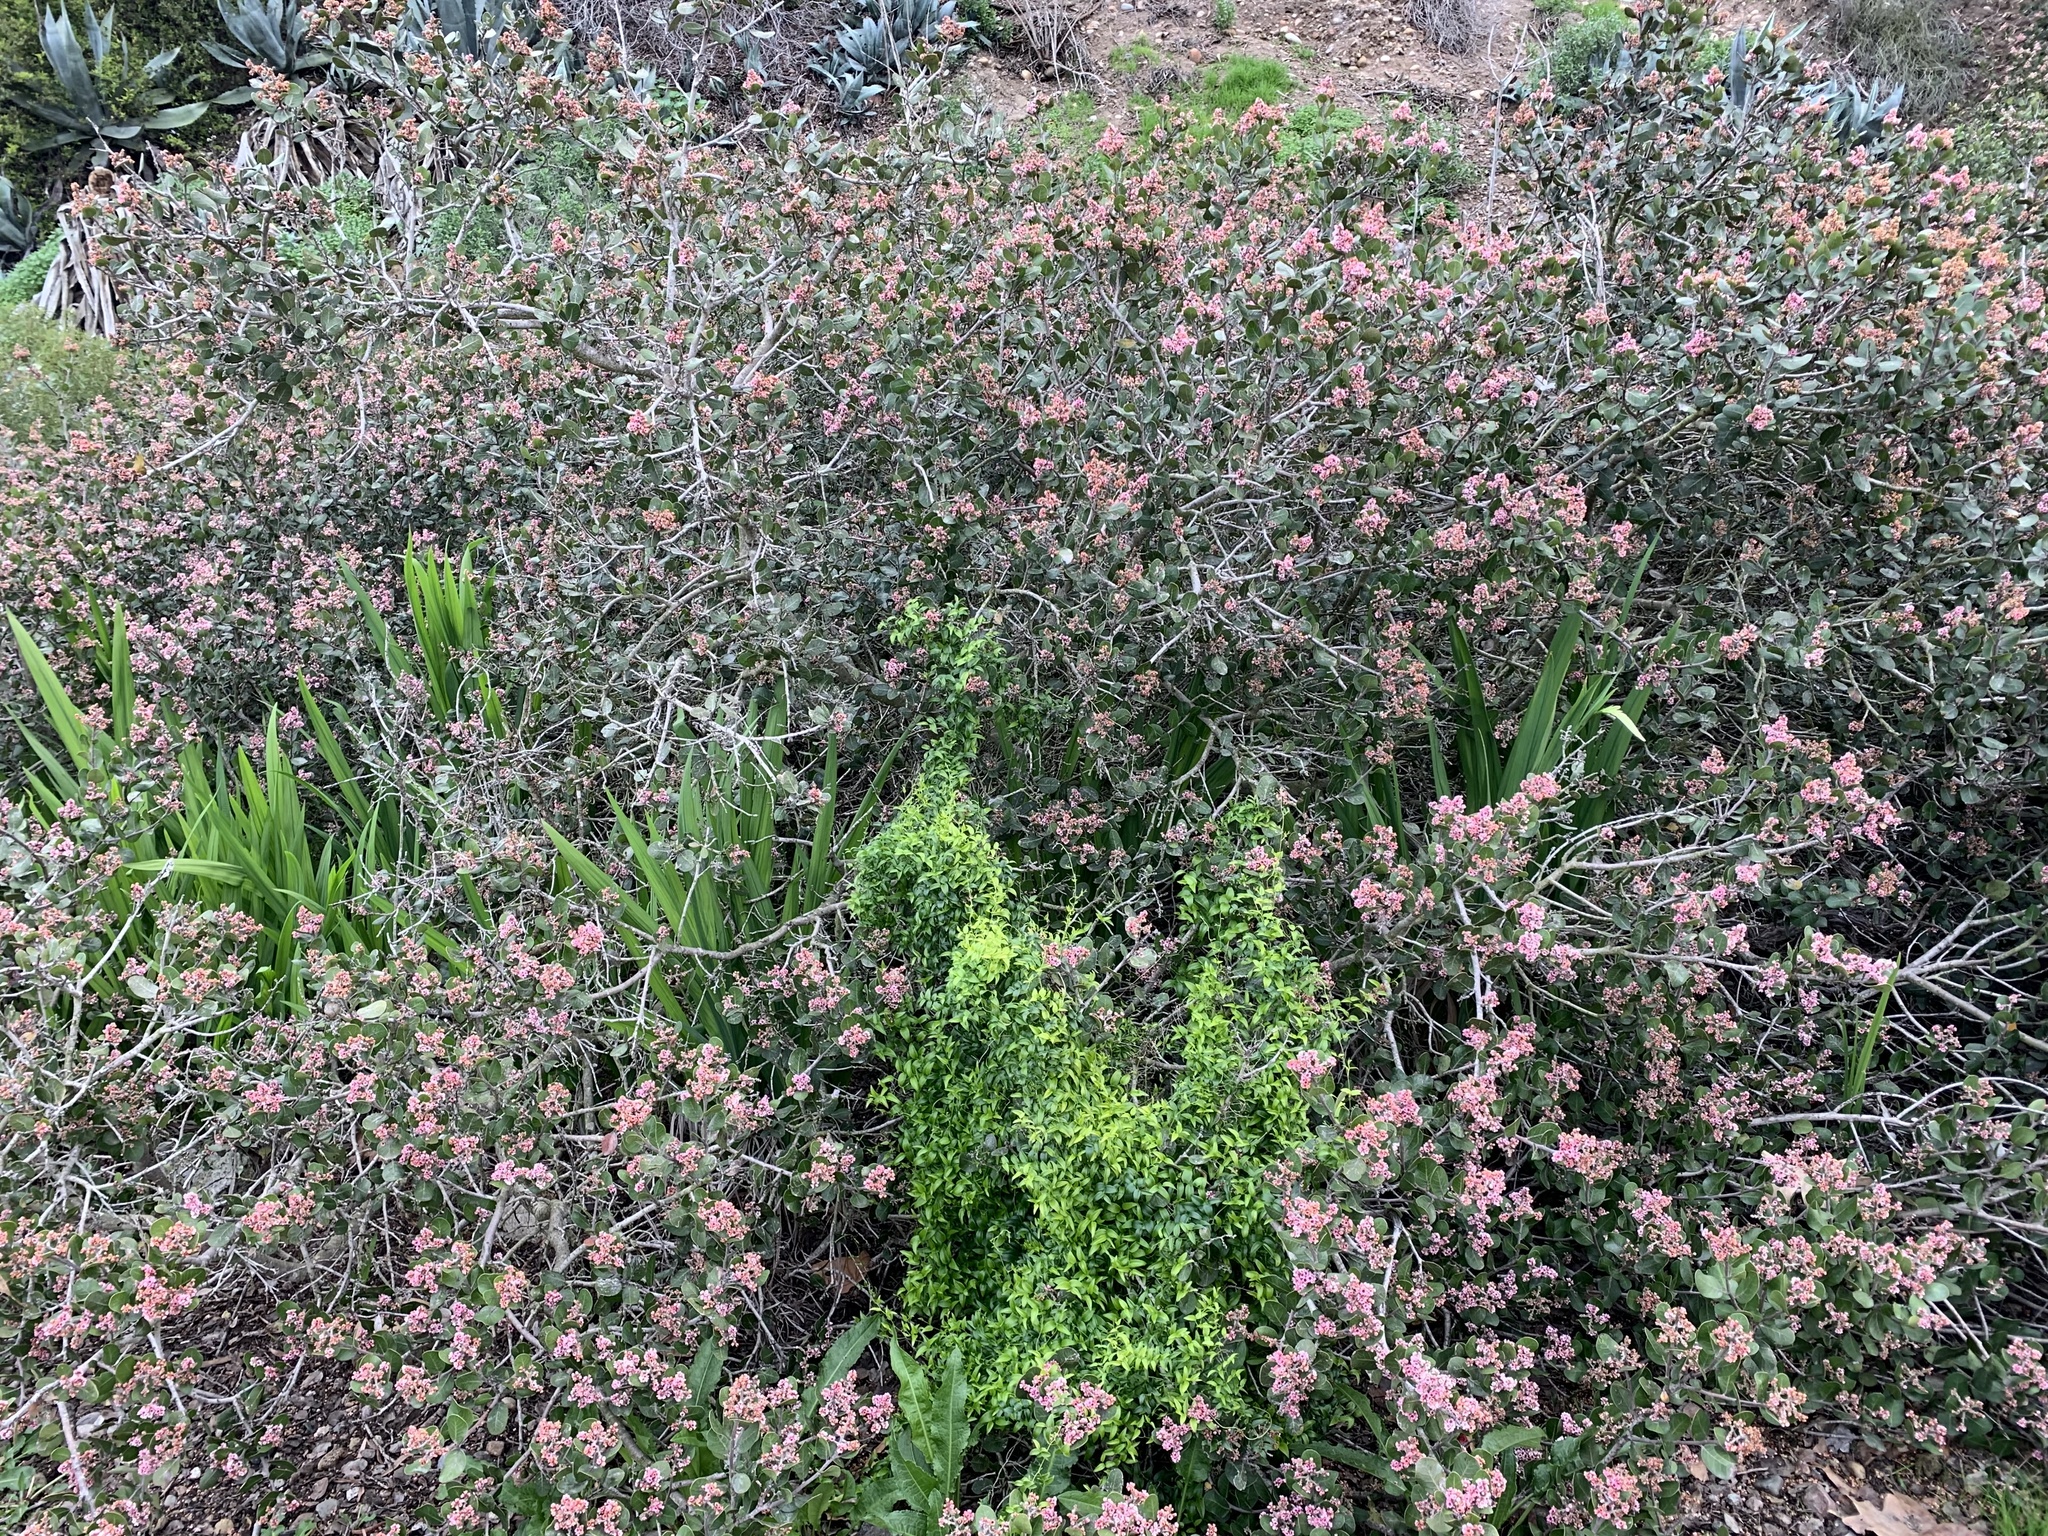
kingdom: Plantae
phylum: Tracheophyta
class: Liliopsida
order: Asparagales
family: Asparagaceae
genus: Asparagus
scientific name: Asparagus asparagoides
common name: African asparagus fern
